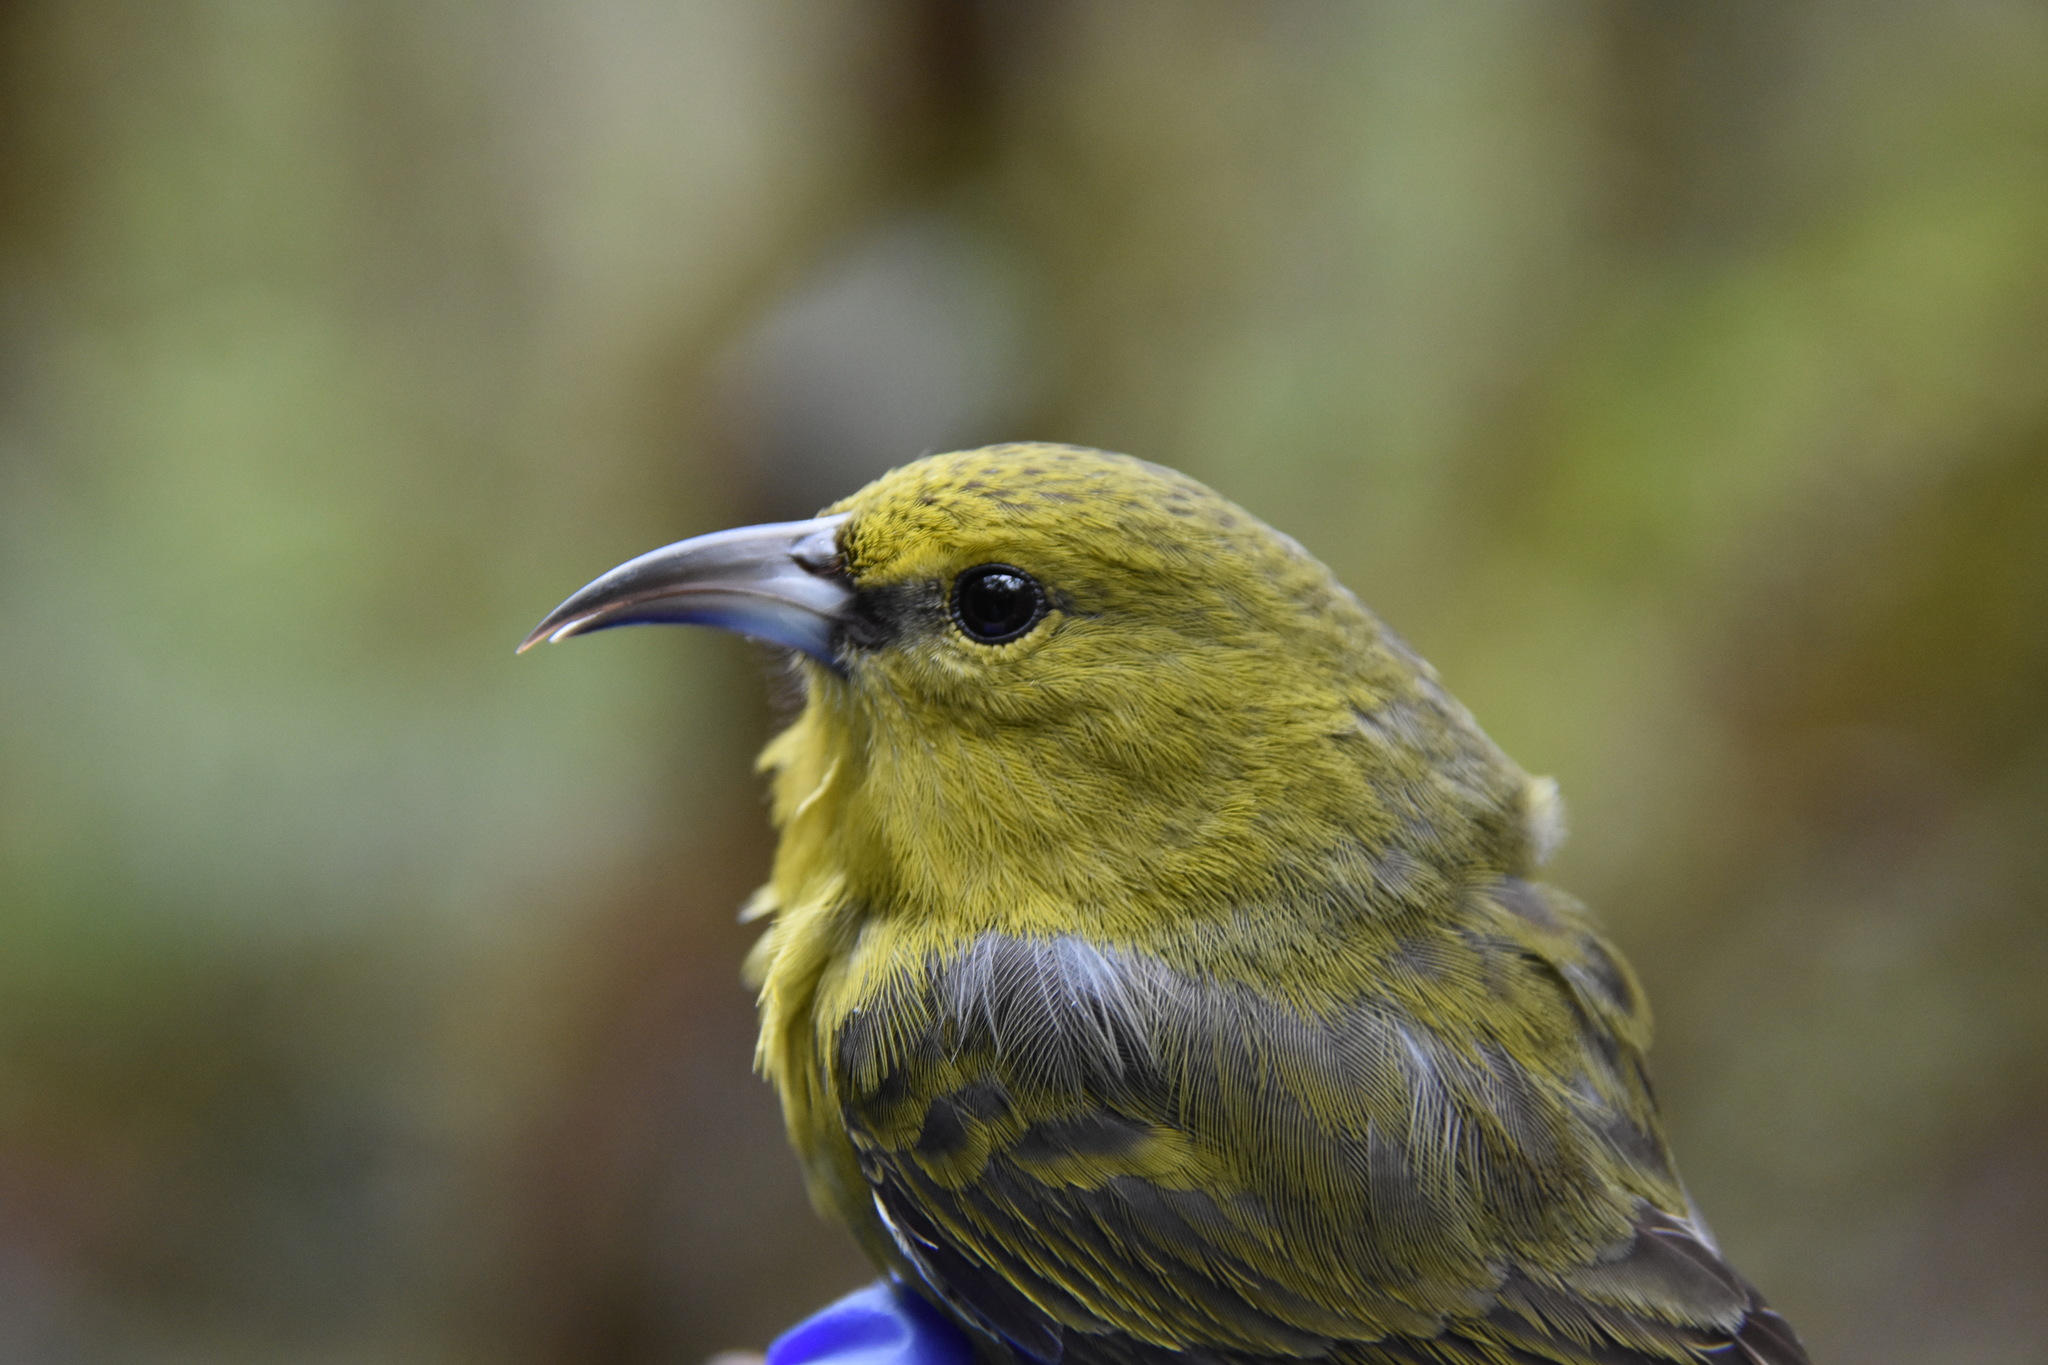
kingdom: Animalia
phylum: Chordata
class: Aves
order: Passeriformes
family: Fringillidae
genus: Chlorodrepanis
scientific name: Chlorodrepanis stejnegeri
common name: Kauai amakihi
